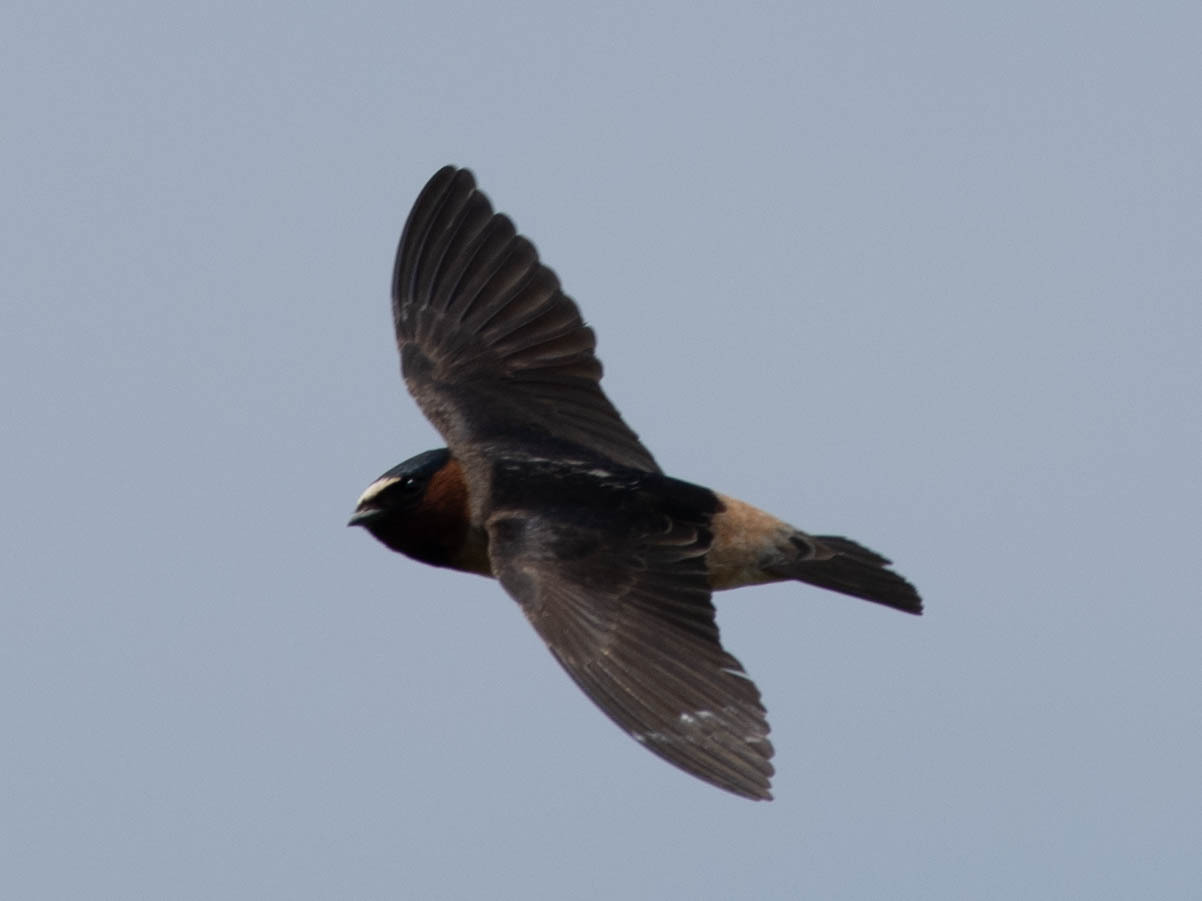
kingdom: Animalia
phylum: Chordata
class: Aves
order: Passeriformes
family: Hirundinidae
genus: Petrochelidon
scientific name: Petrochelidon pyrrhonota
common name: American cliff swallow
